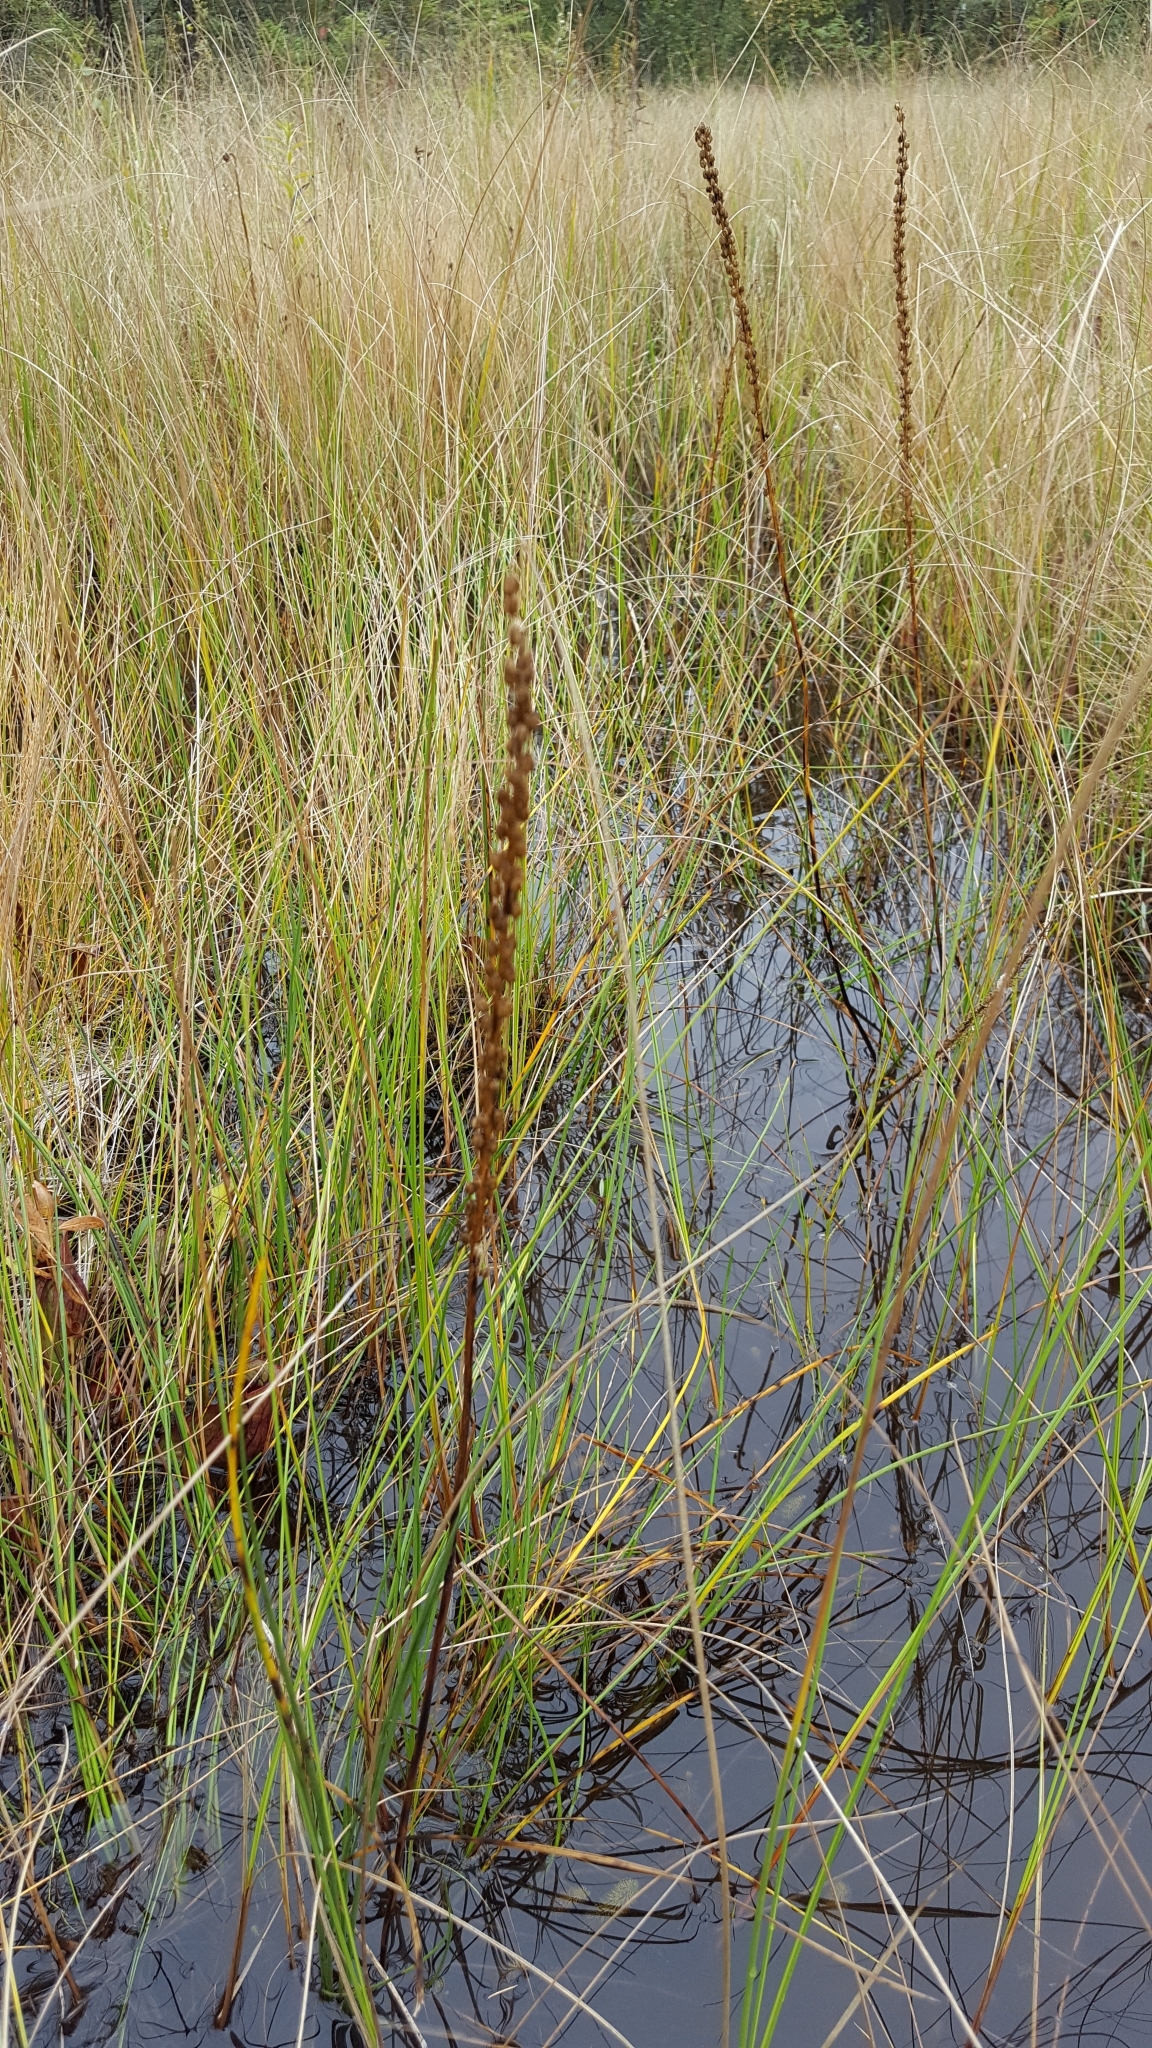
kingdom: Plantae
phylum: Tracheophyta
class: Liliopsida
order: Alismatales
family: Juncaginaceae
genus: Triglochin
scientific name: Triglochin maritima
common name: Sea arrowgrass
